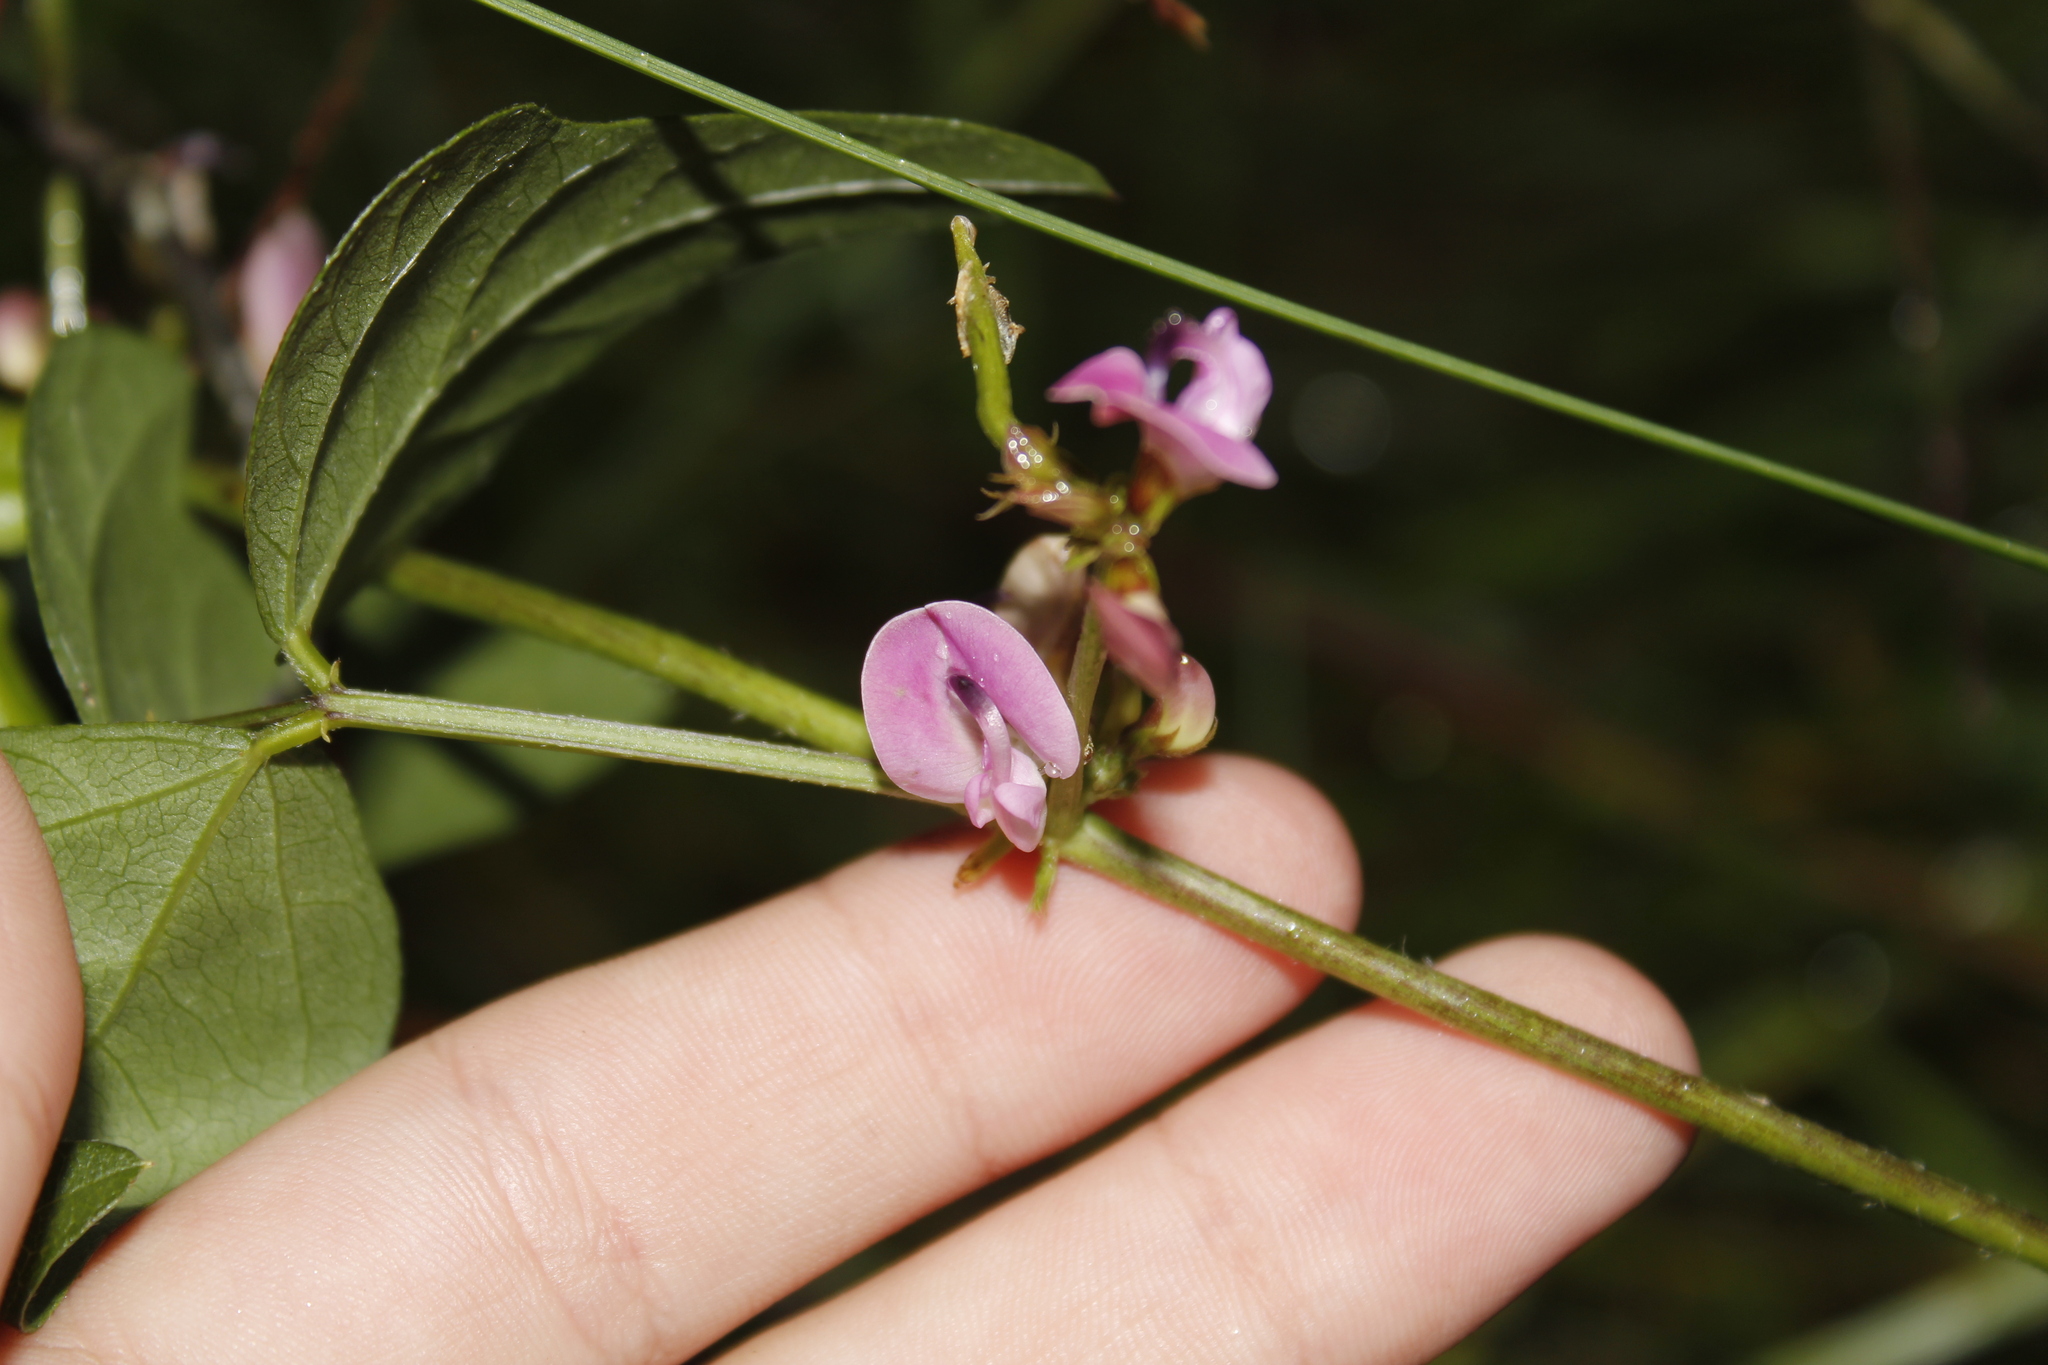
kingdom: Plantae
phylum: Tracheophyta
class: Magnoliopsida
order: Fabales
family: Fabaceae
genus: Strophostyles
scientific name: Strophostyles helvola
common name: Trailing wild bean
